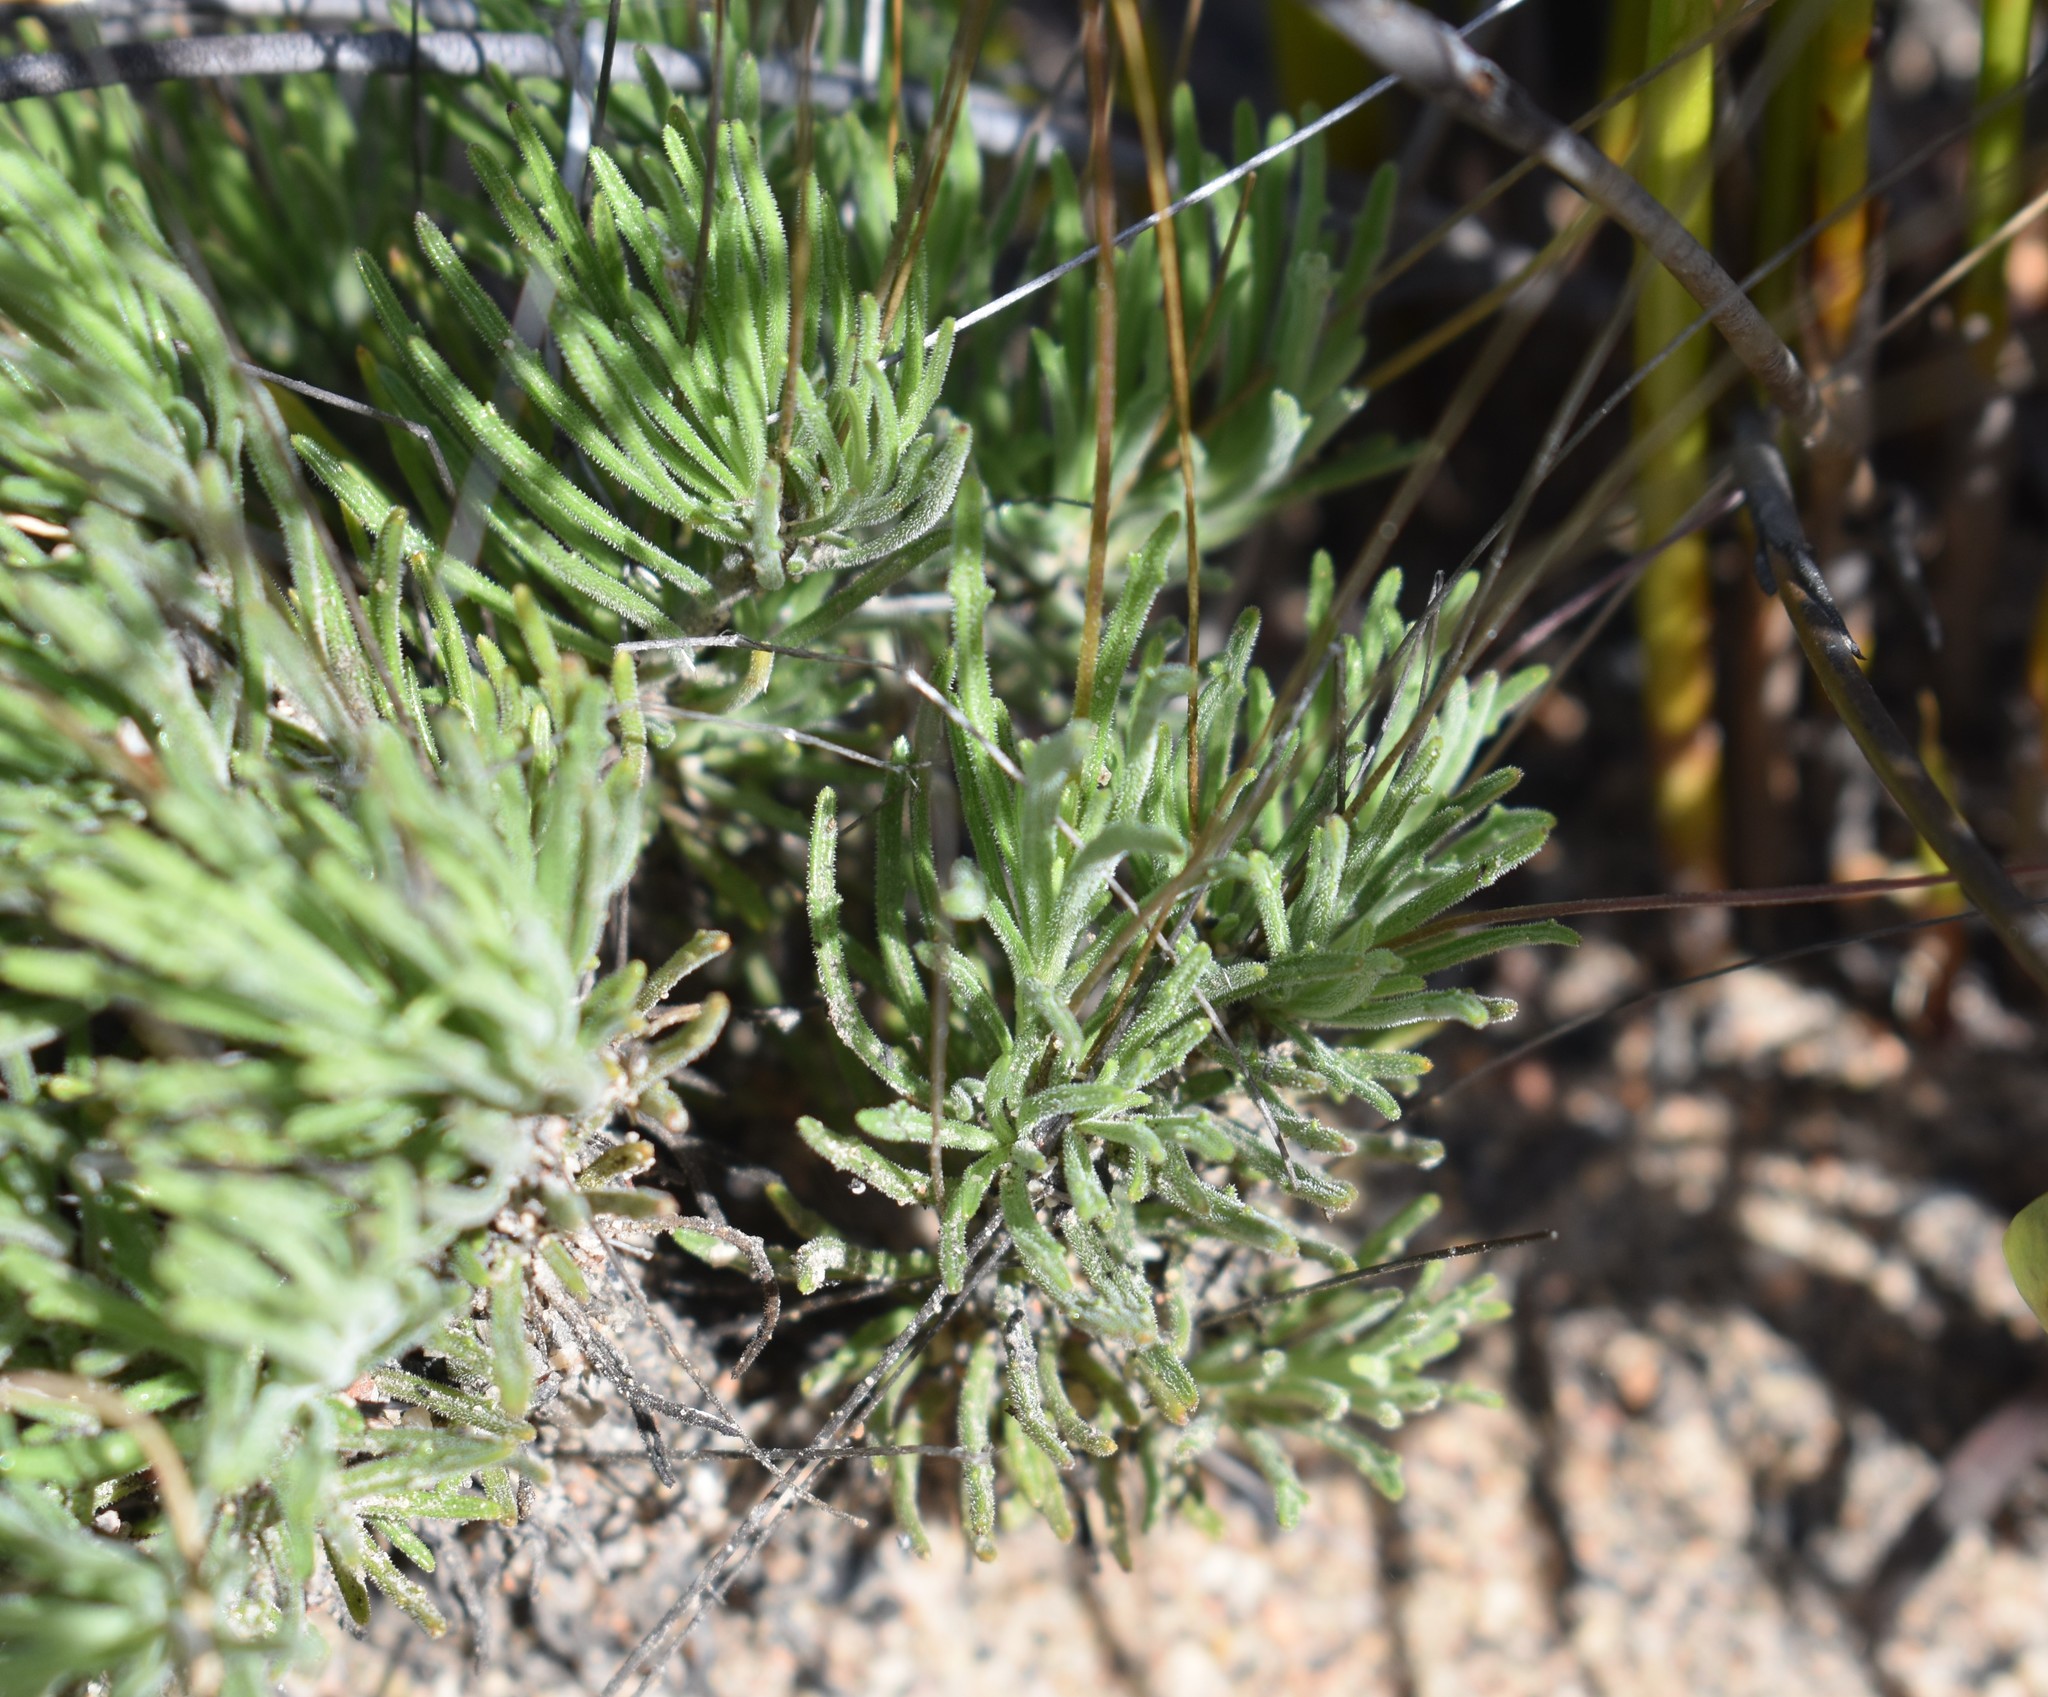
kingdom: Plantae
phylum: Tracheophyta
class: Magnoliopsida
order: Asterales
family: Campanulaceae
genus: Lobelia
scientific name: Lobelia tomentosa
